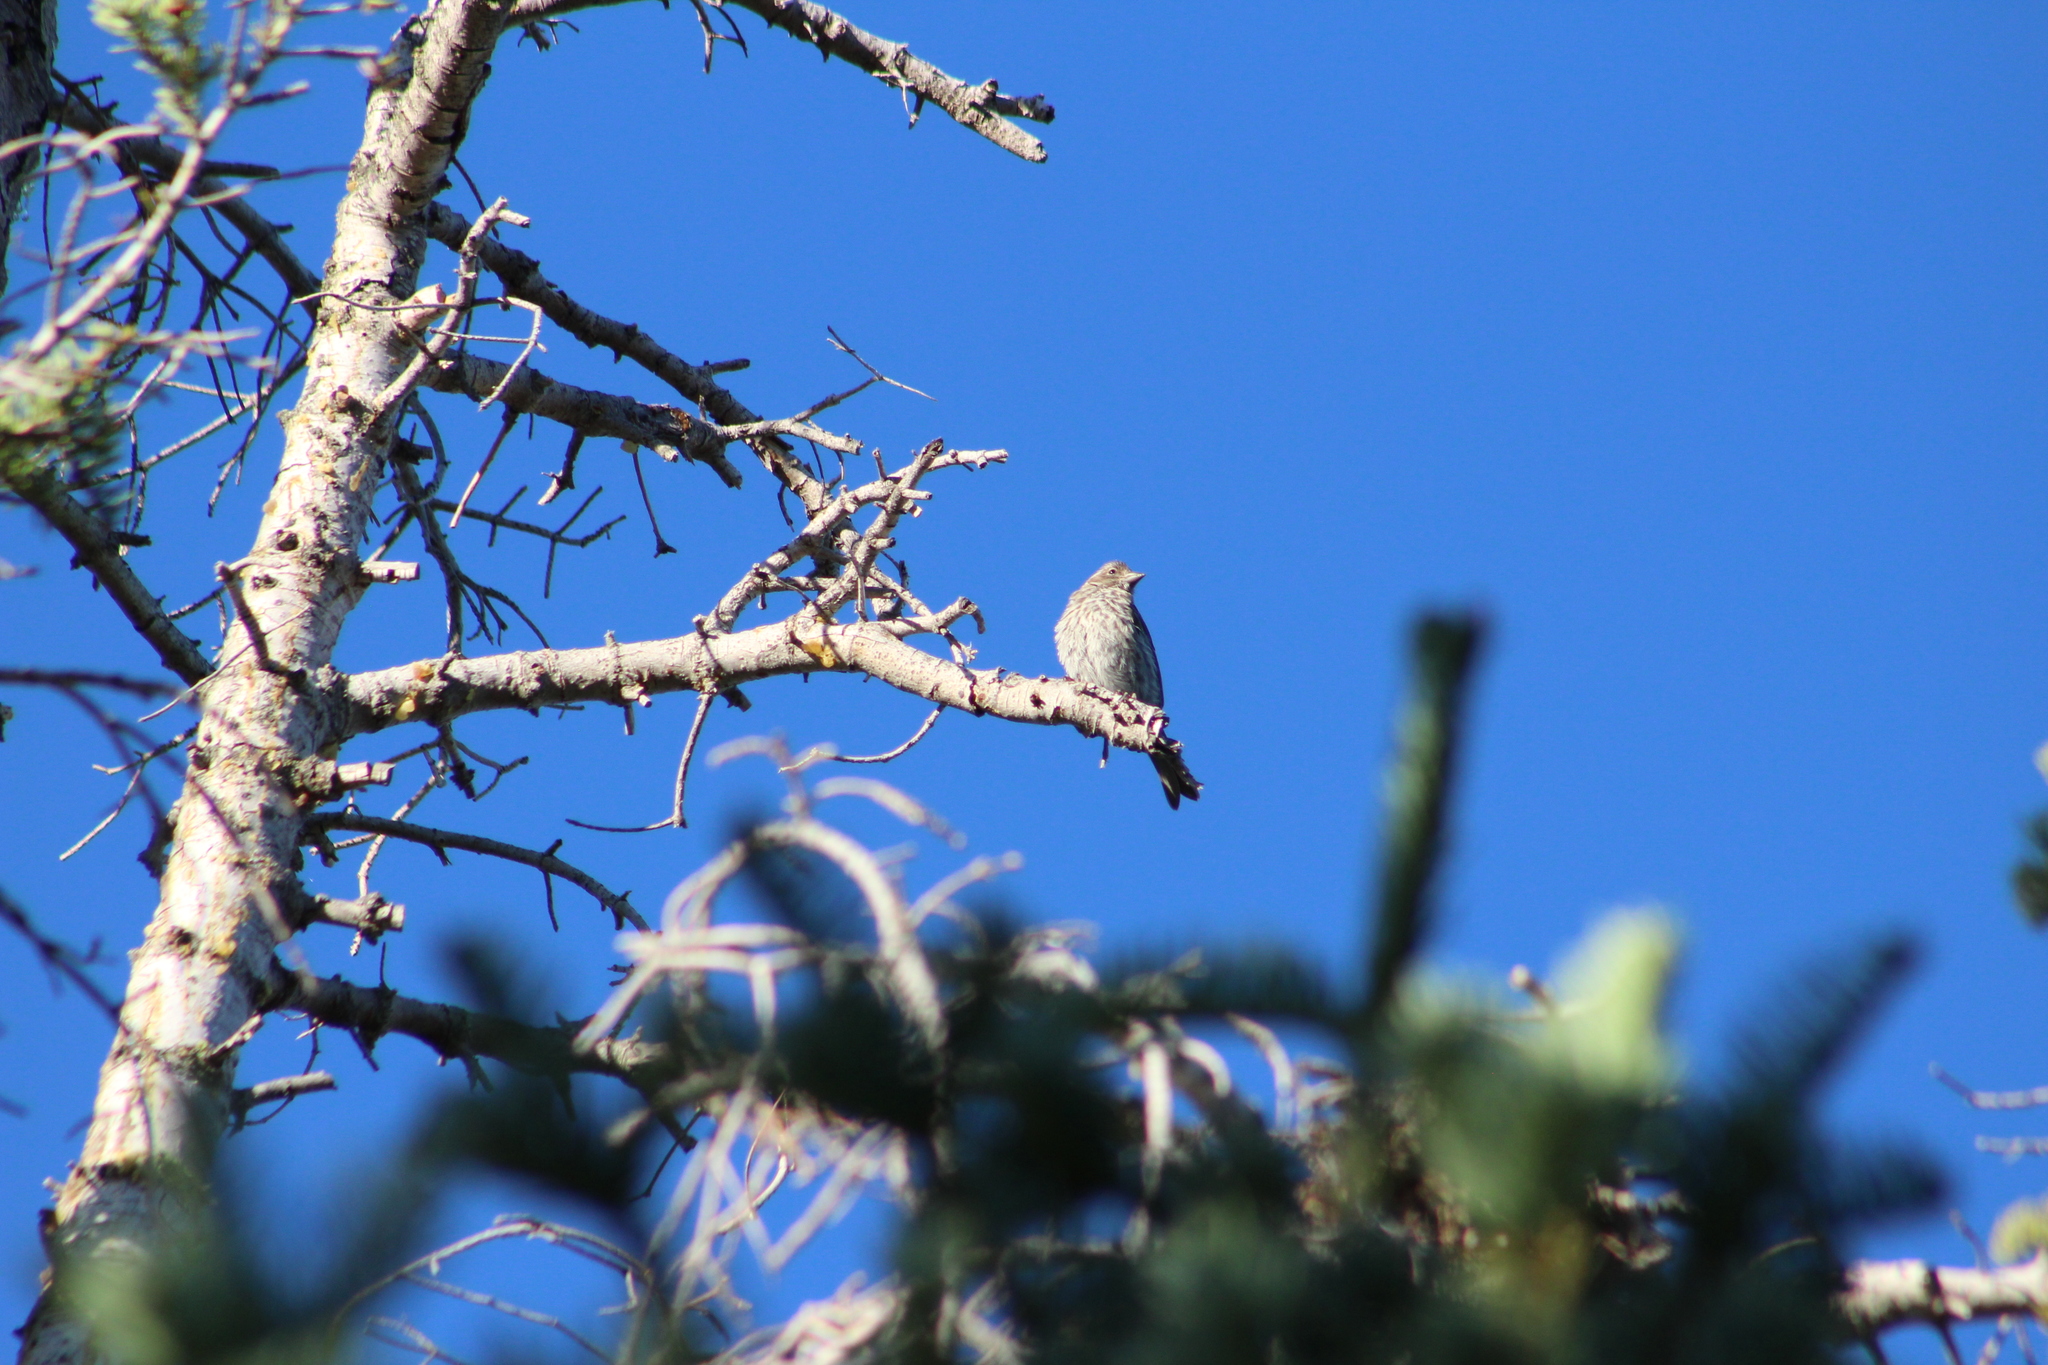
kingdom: Animalia
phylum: Chordata
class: Aves
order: Passeriformes
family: Fringillidae
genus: Haemorhous
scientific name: Haemorhous cassinii
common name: Cassin's finch
